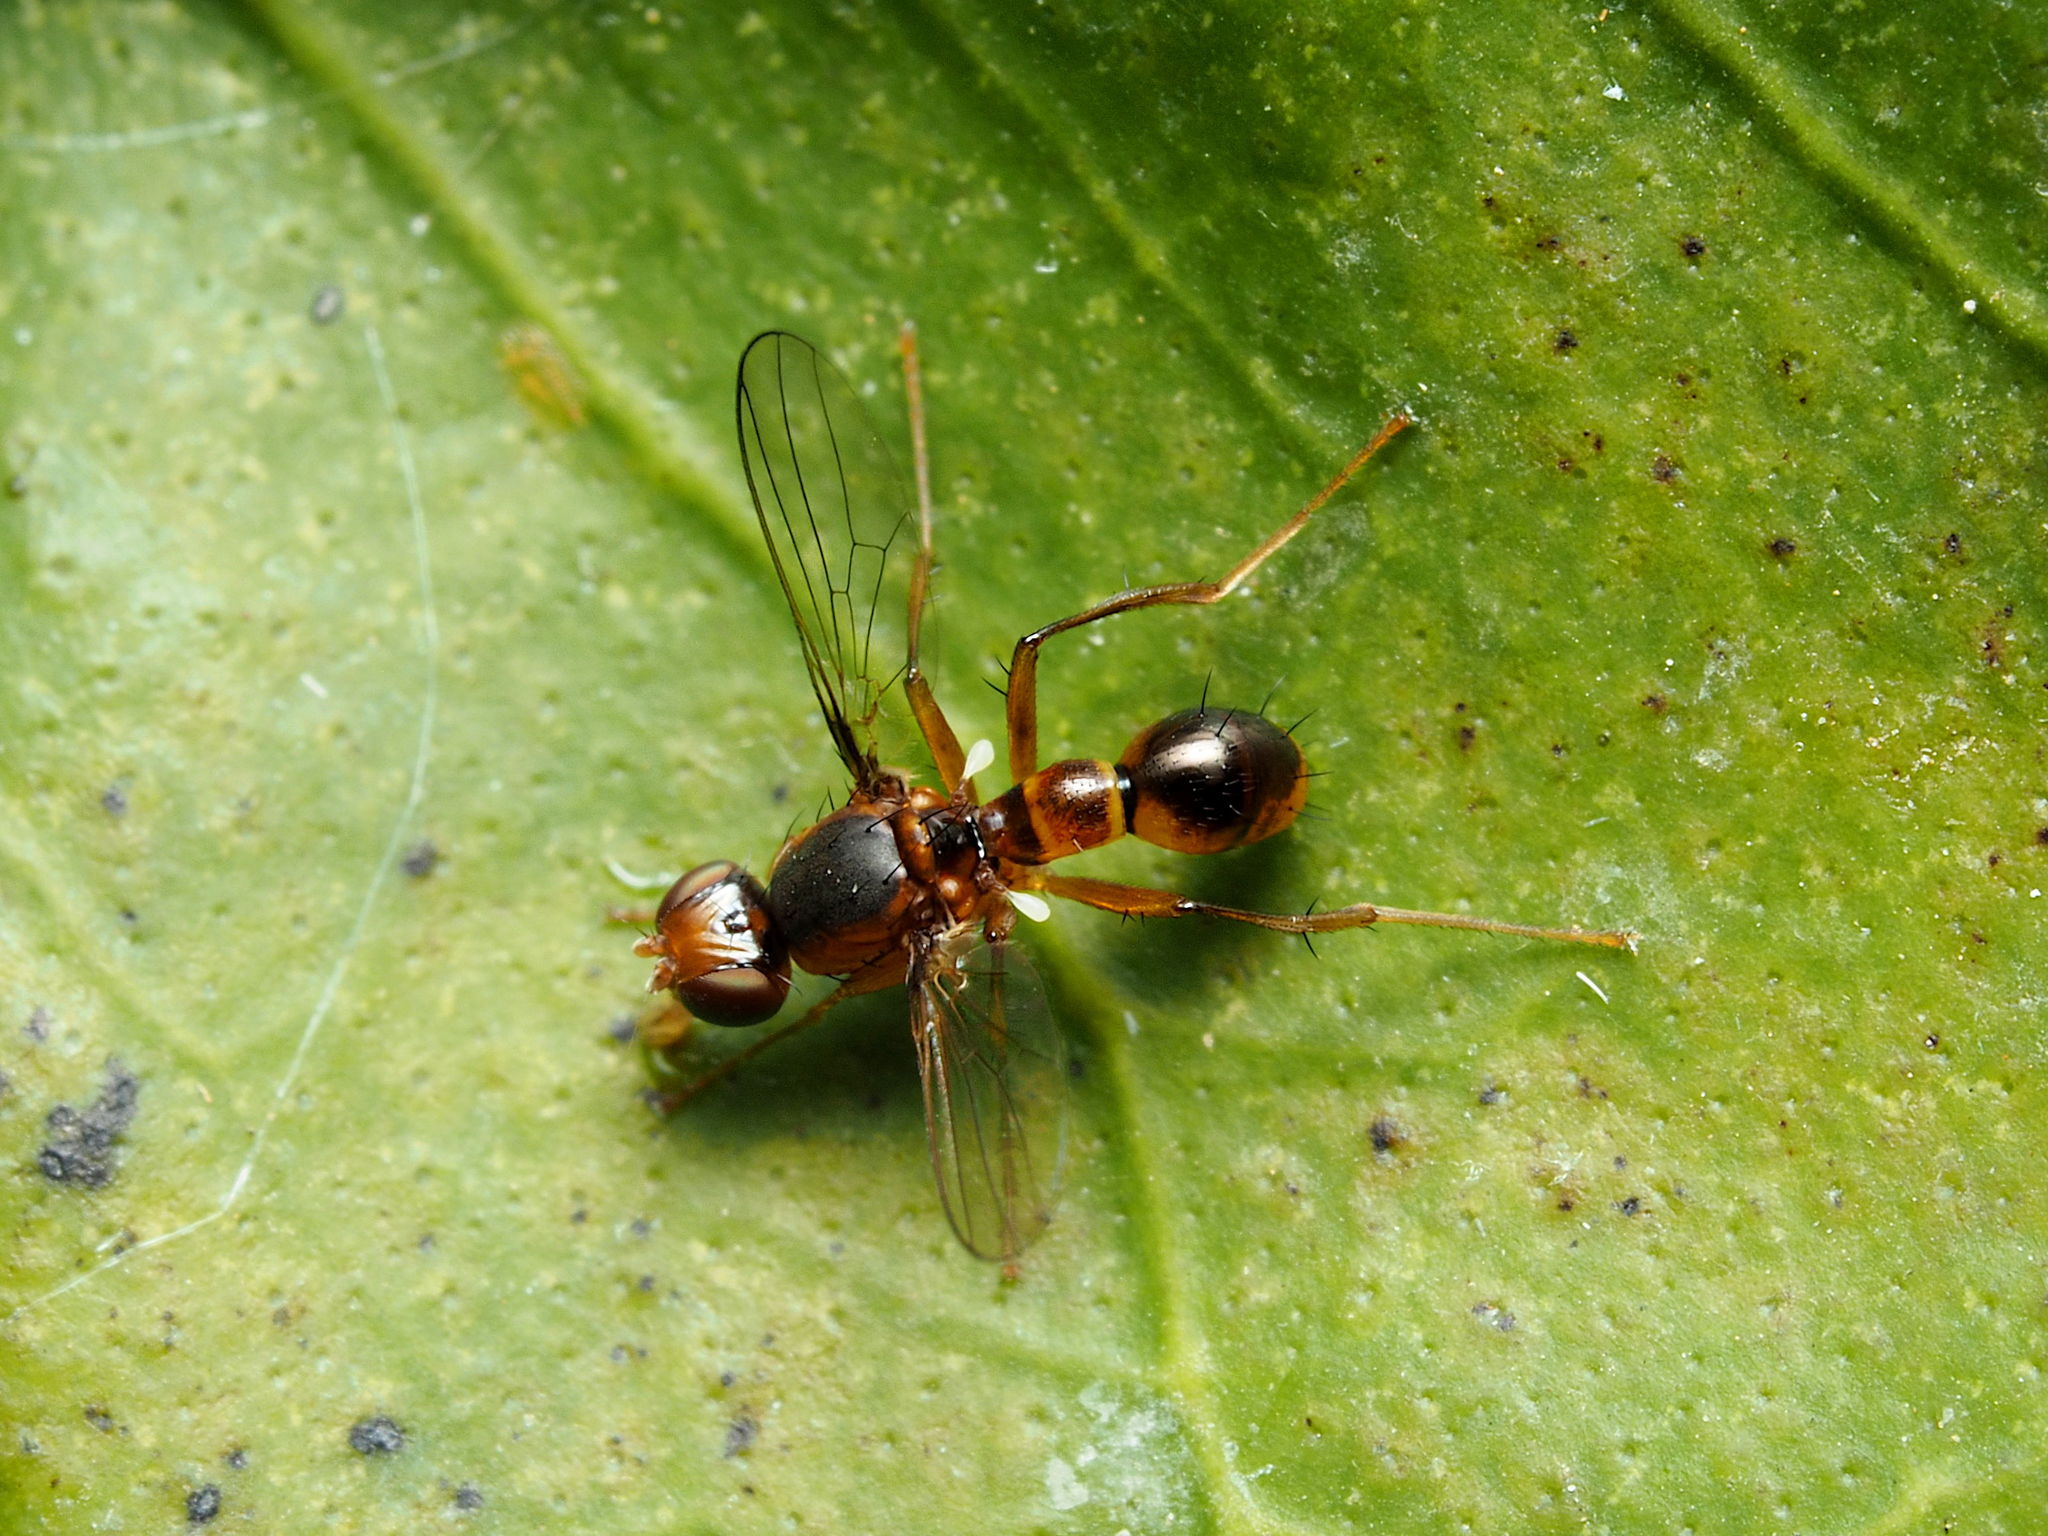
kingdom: Animalia
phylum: Arthropoda
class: Insecta
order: Diptera
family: Sepsidae
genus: Sepsis
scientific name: Sepsis lateralis
